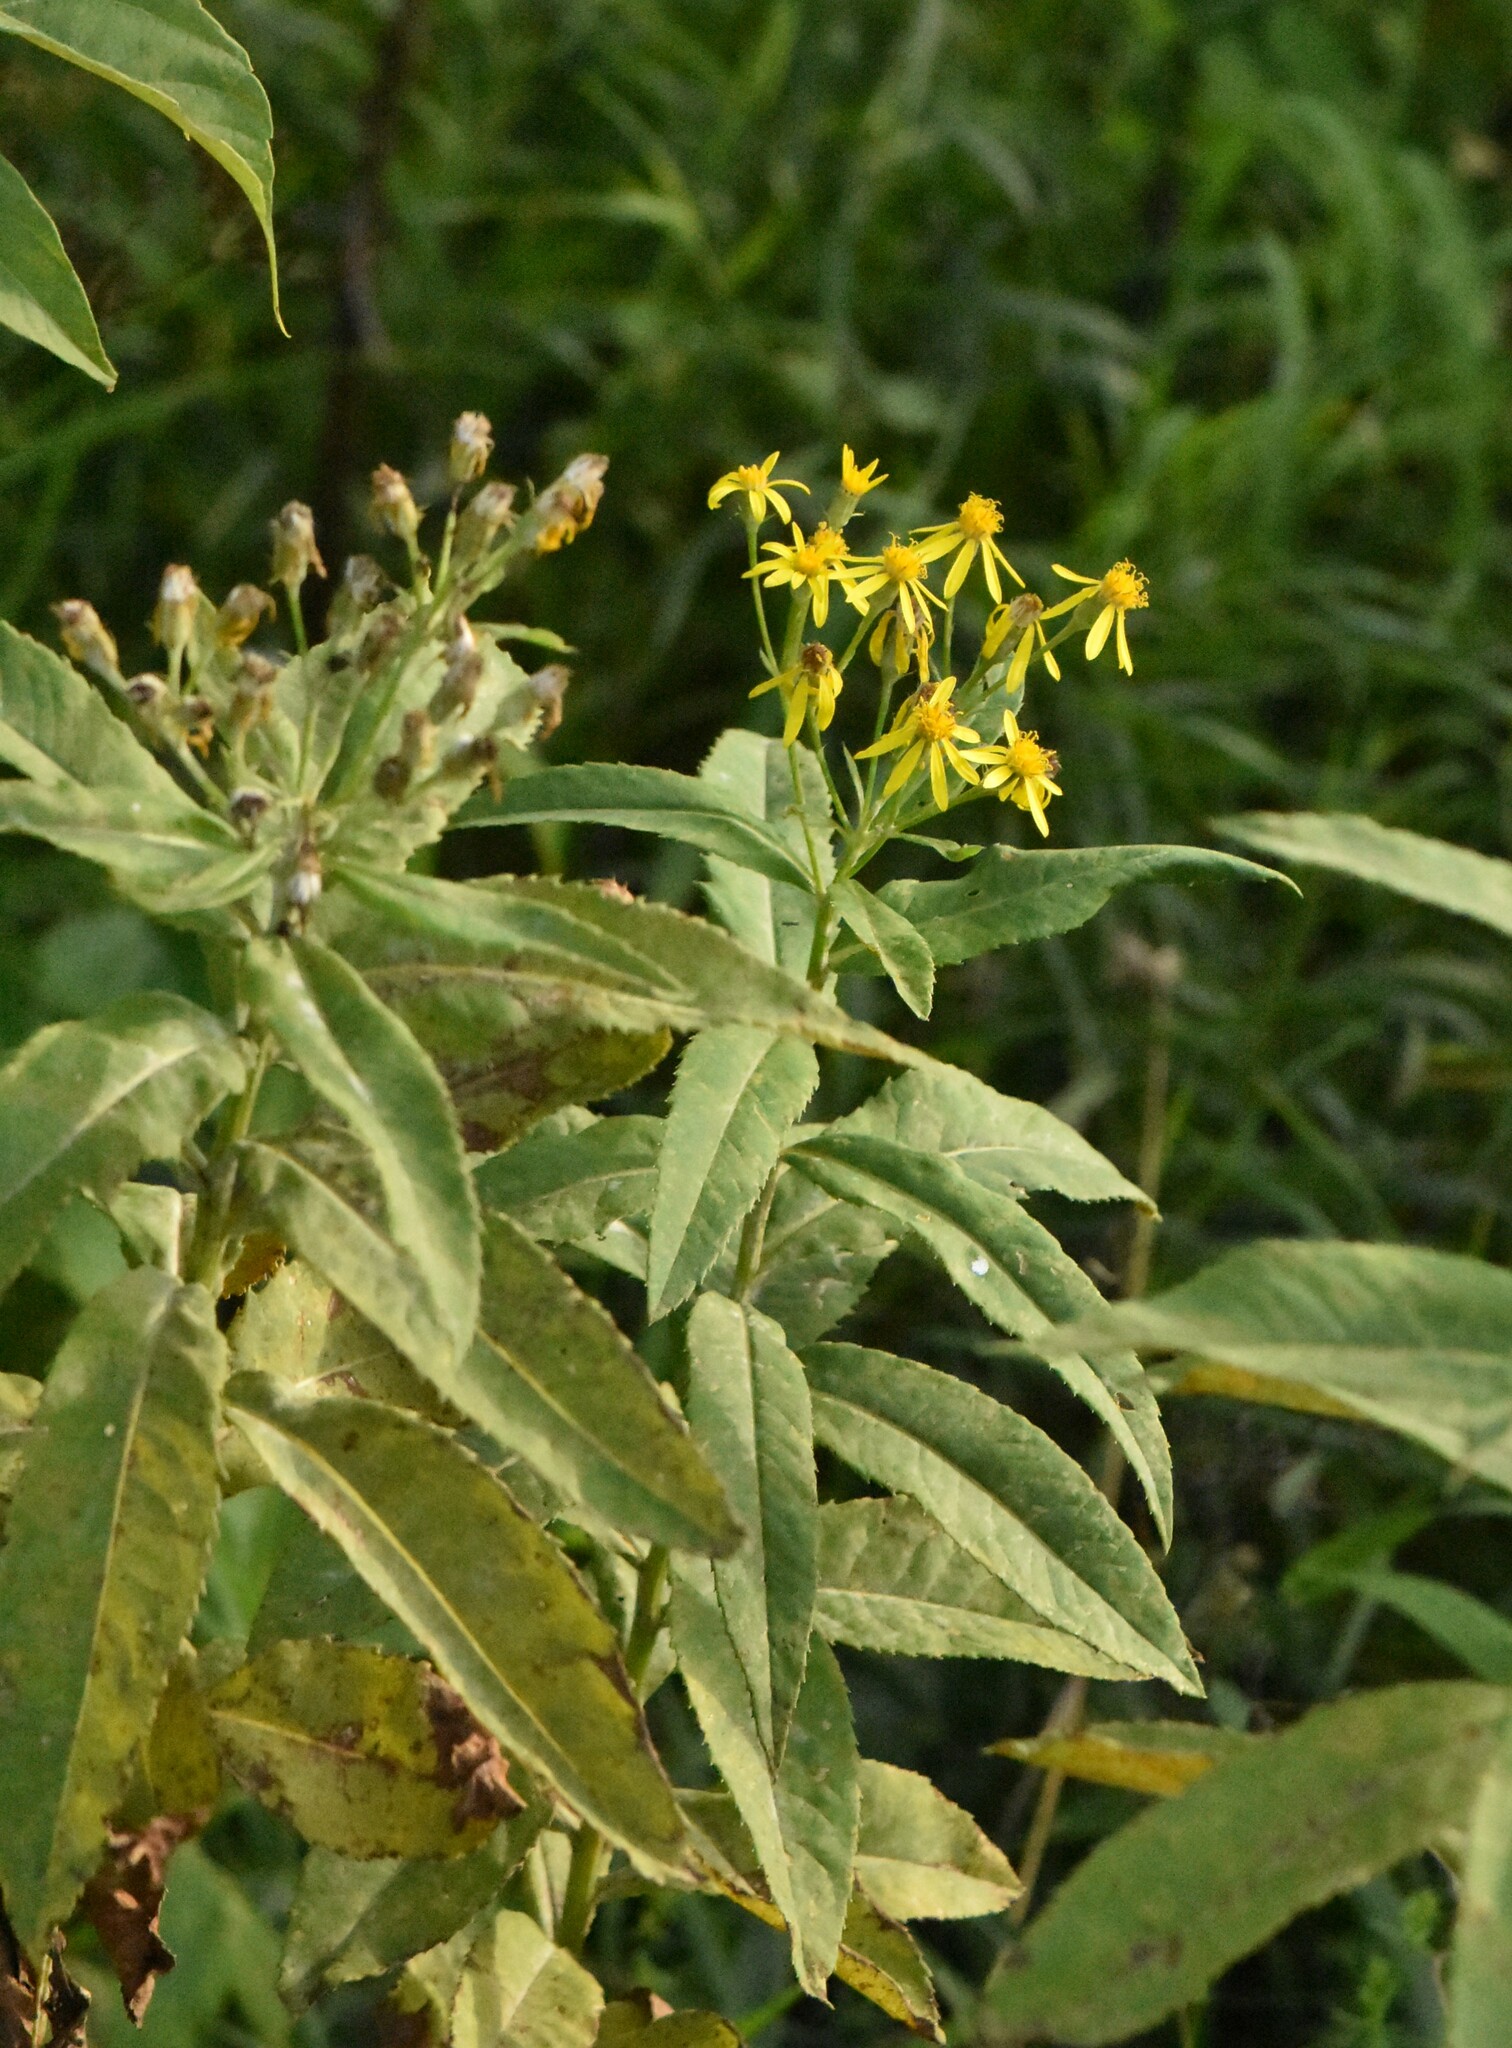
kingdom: Plantae
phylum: Tracheophyta
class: Magnoliopsida
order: Asterales
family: Asteraceae
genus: Senecio
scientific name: Senecio sarracenicus
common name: Broad-leaved ragwort
